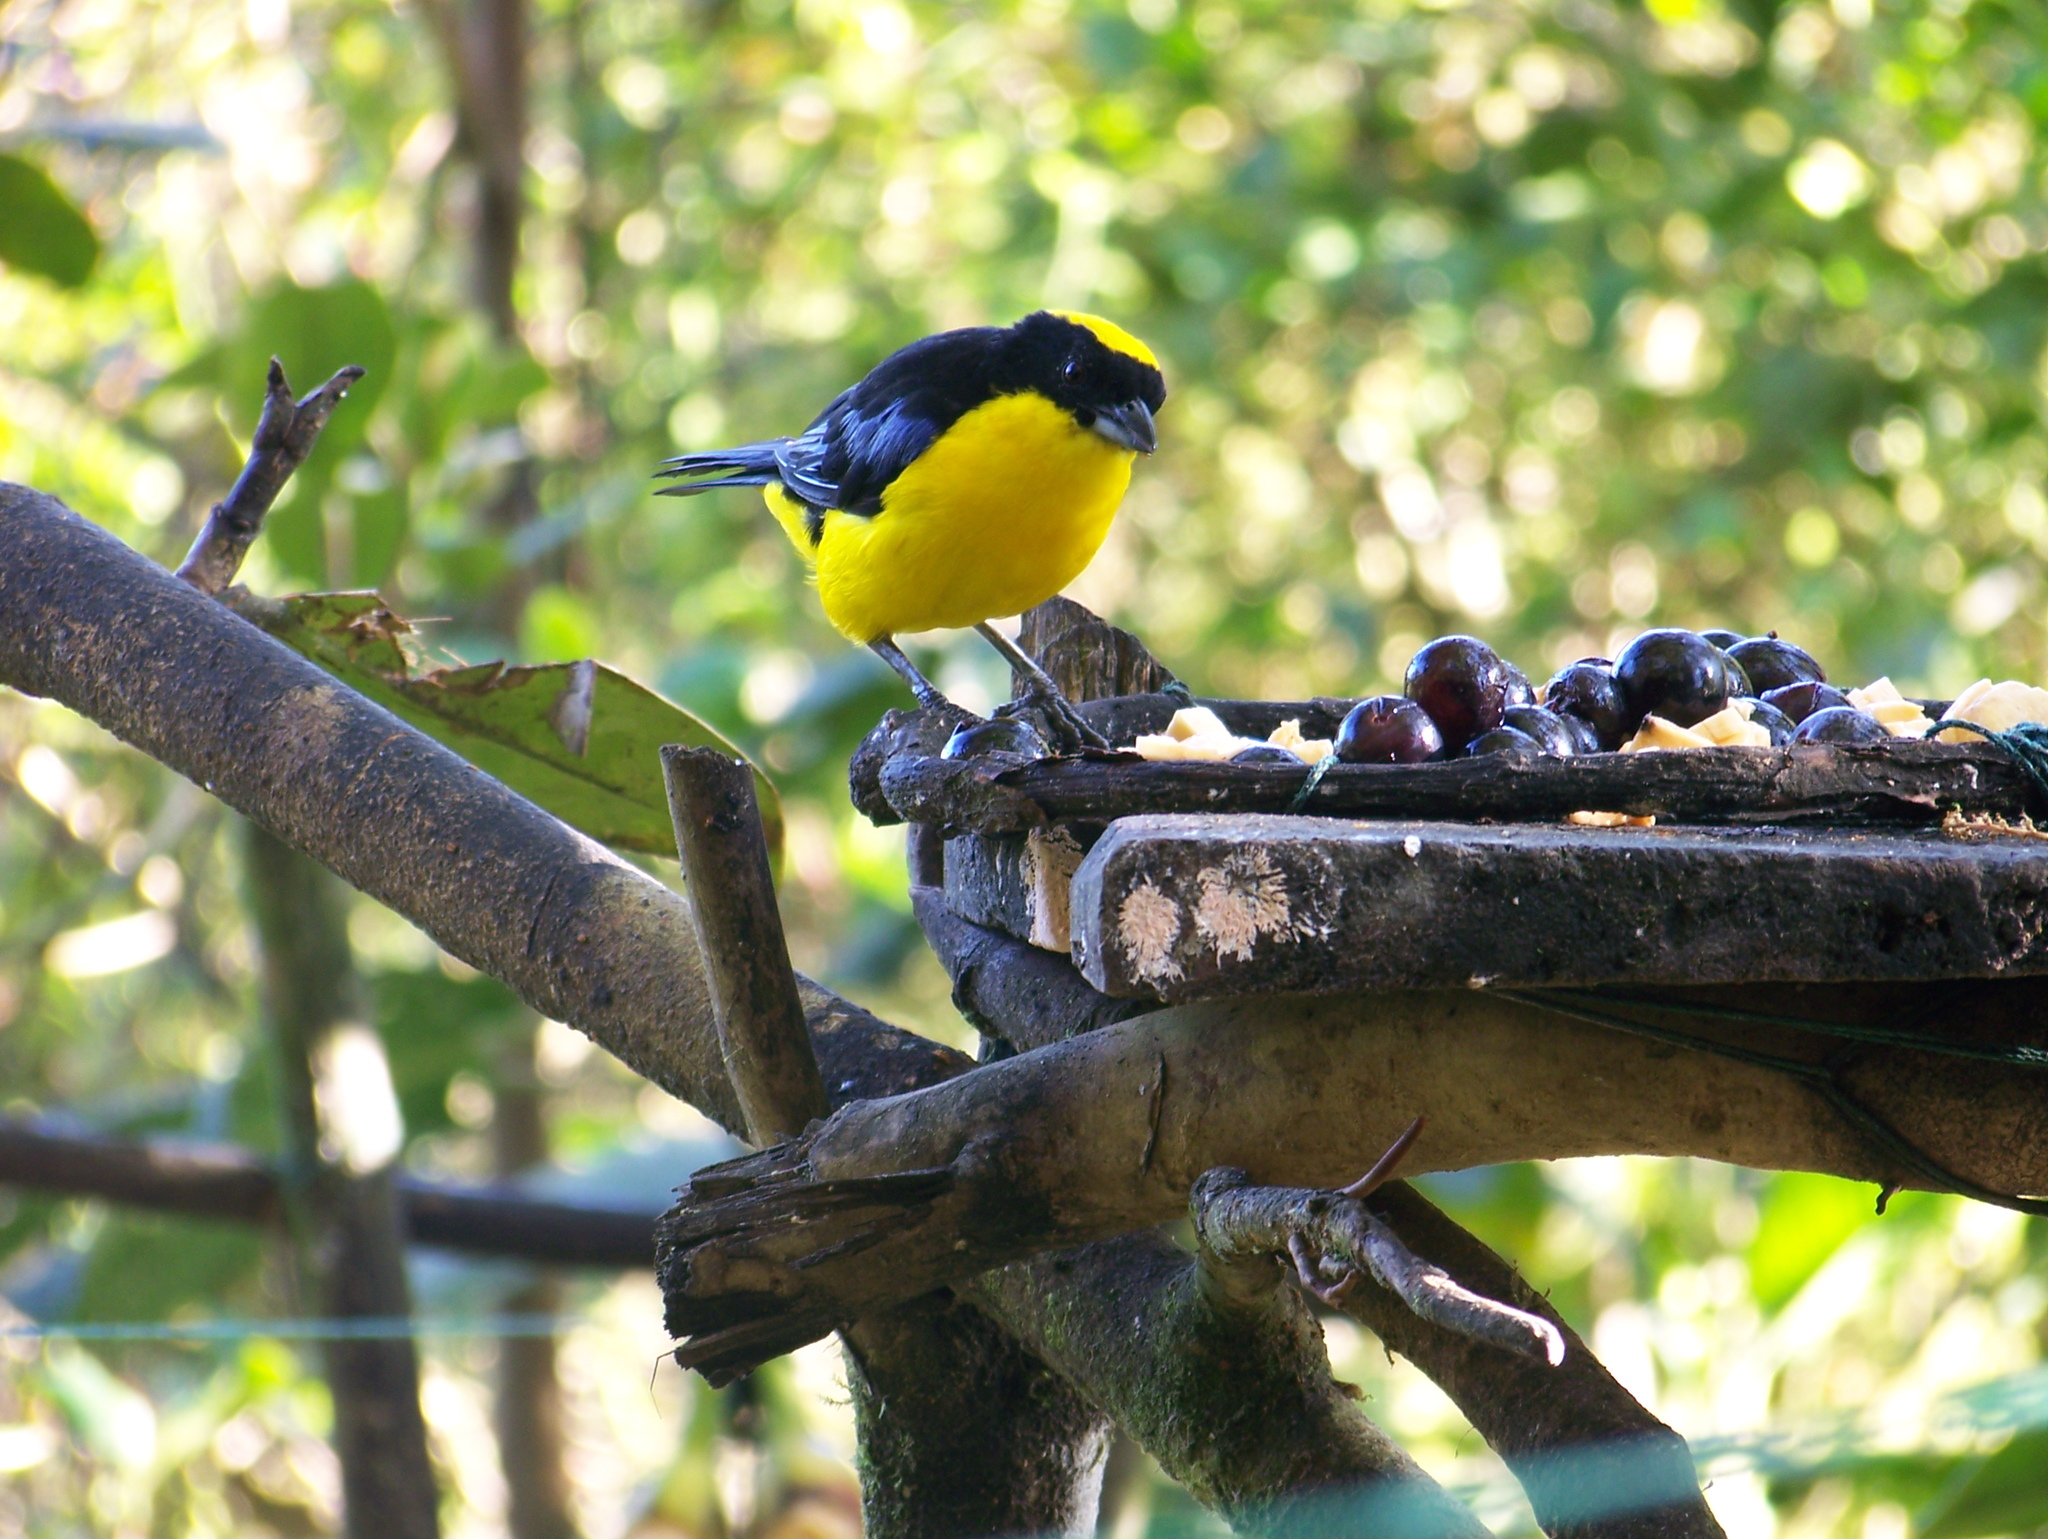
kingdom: Animalia
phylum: Chordata
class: Aves
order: Passeriformes
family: Thraupidae
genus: Anisognathus
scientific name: Anisognathus somptuosus
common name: Blue-winged mountain-tanager
